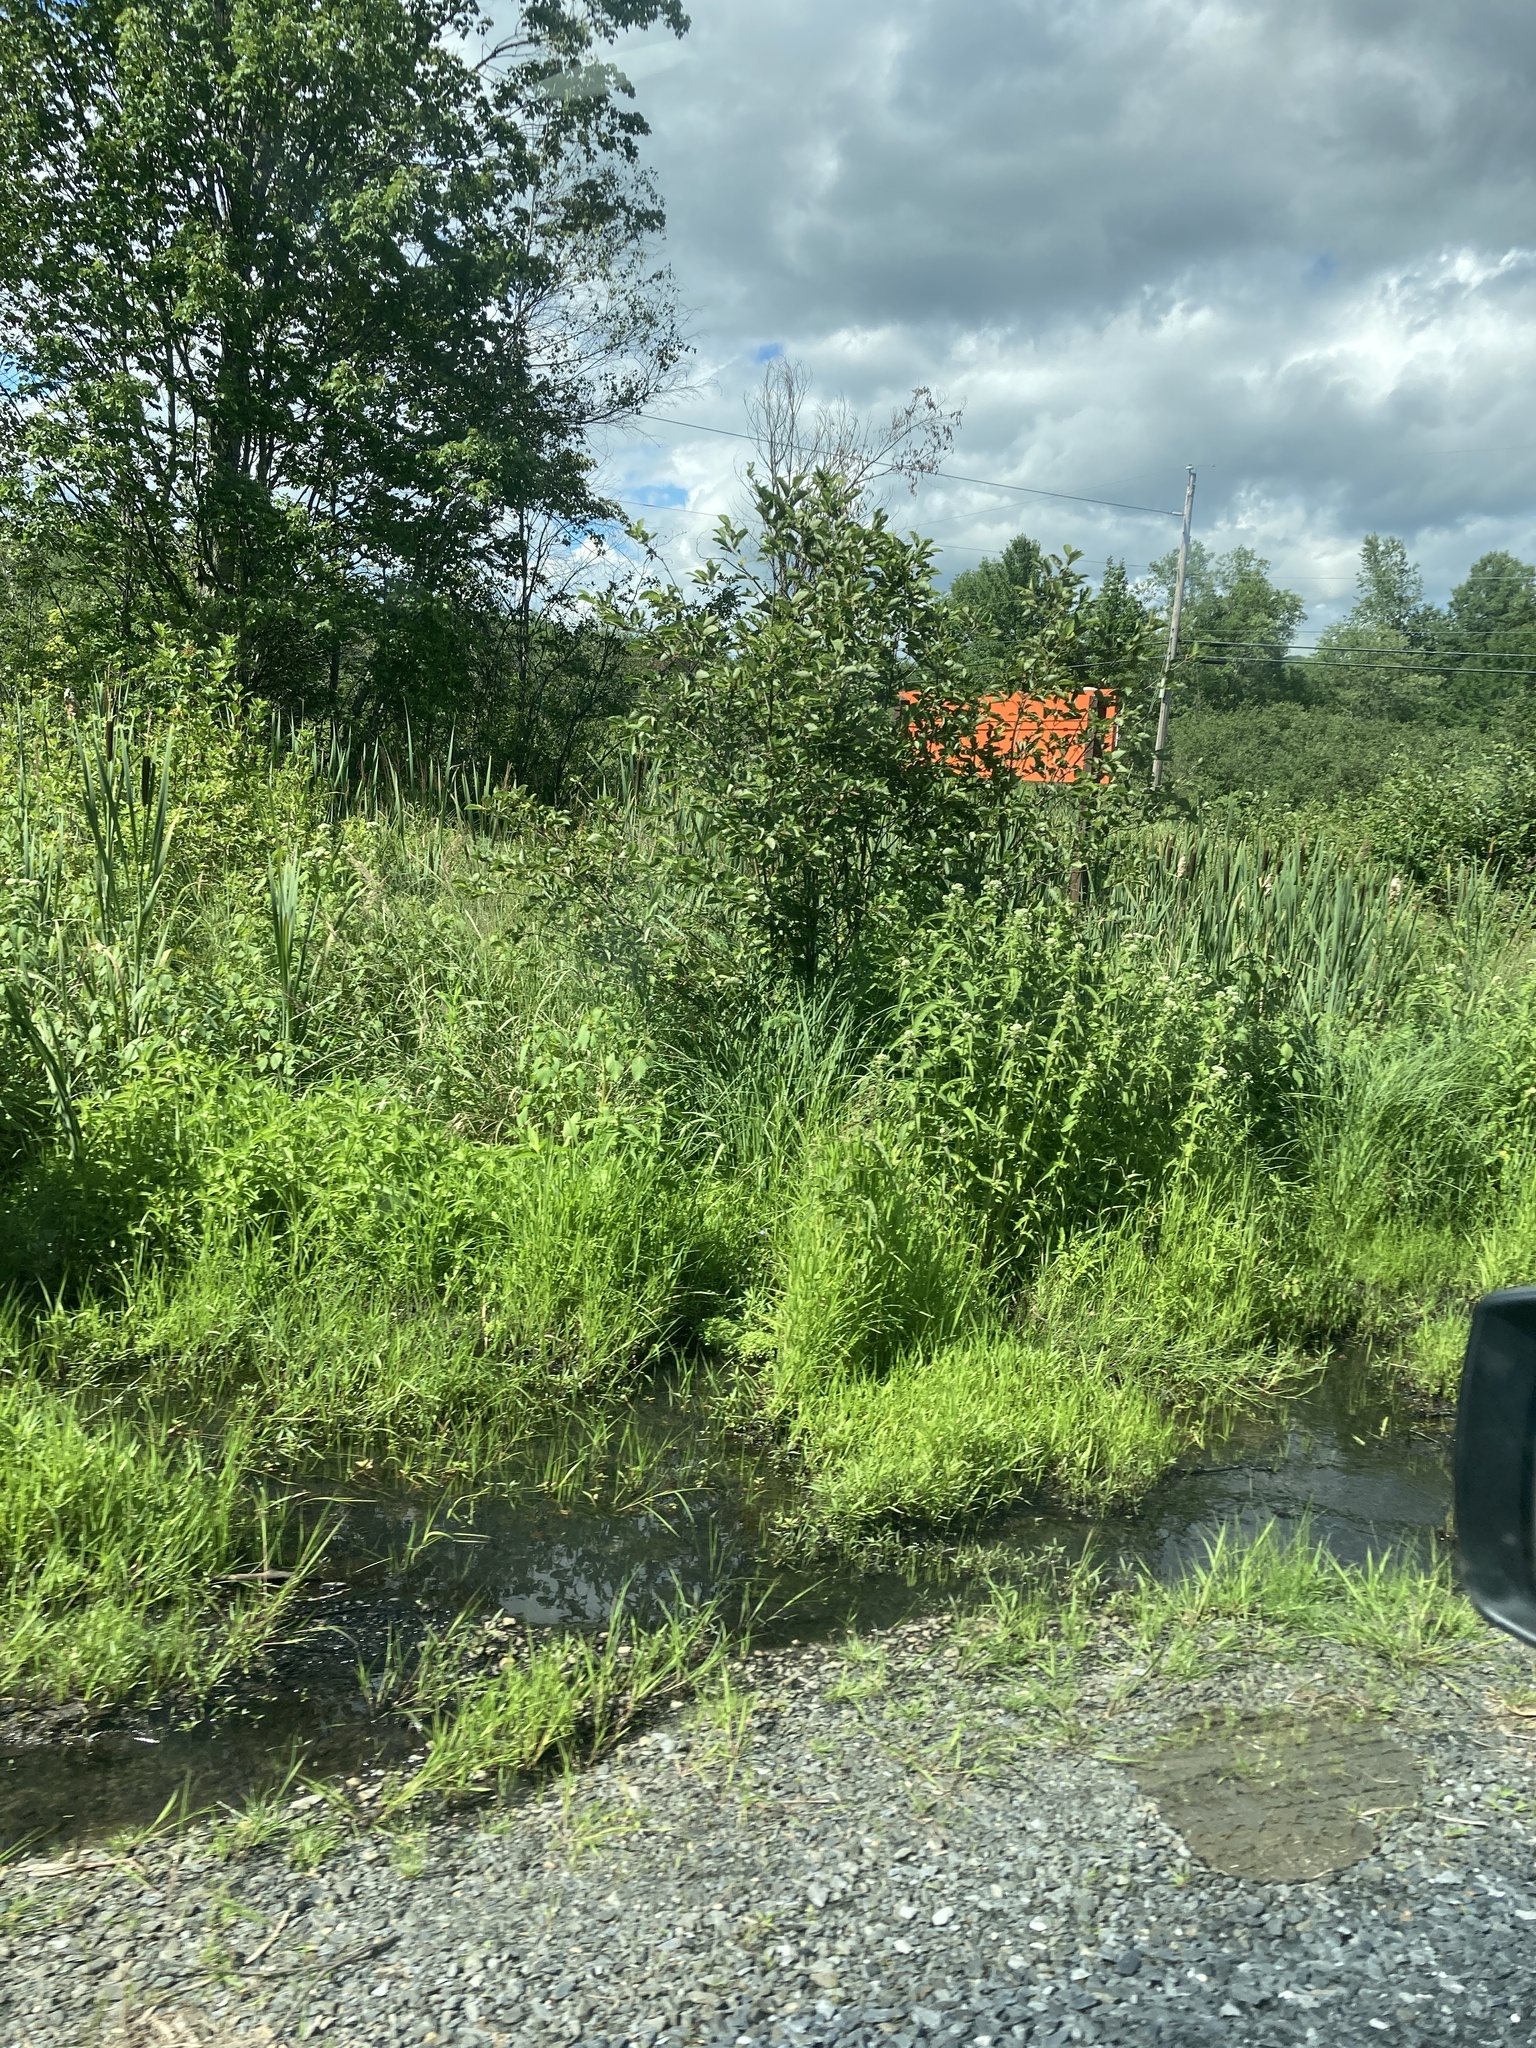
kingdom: Plantae
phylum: Tracheophyta
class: Magnoliopsida
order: Asterales
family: Asteraceae
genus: Eupatorium
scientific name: Eupatorium perfoliatum
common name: Boneset
